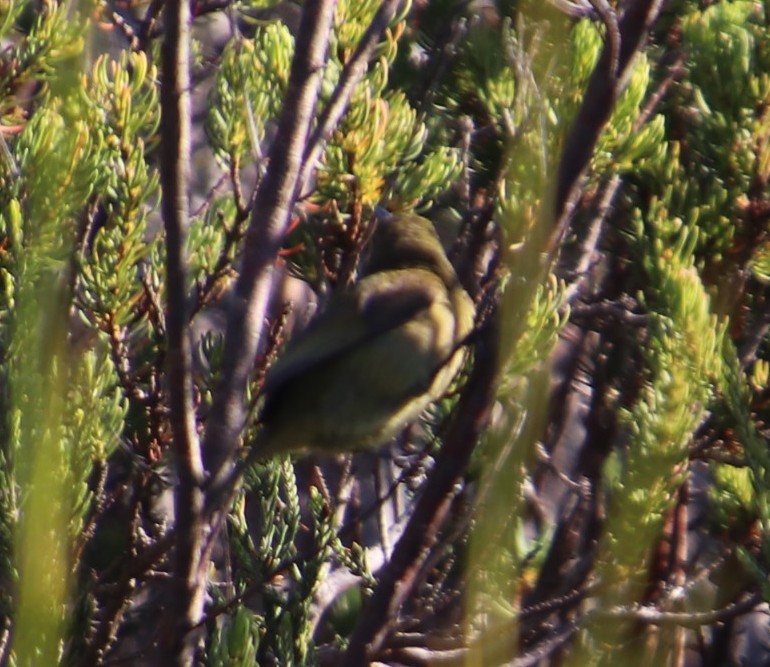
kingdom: Animalia
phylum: Chordata
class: Aves
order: Passeriformes
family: Nectariniidae
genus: Anthobaphes
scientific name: Anthobaphes violacea
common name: Orange-breasted sunbird
